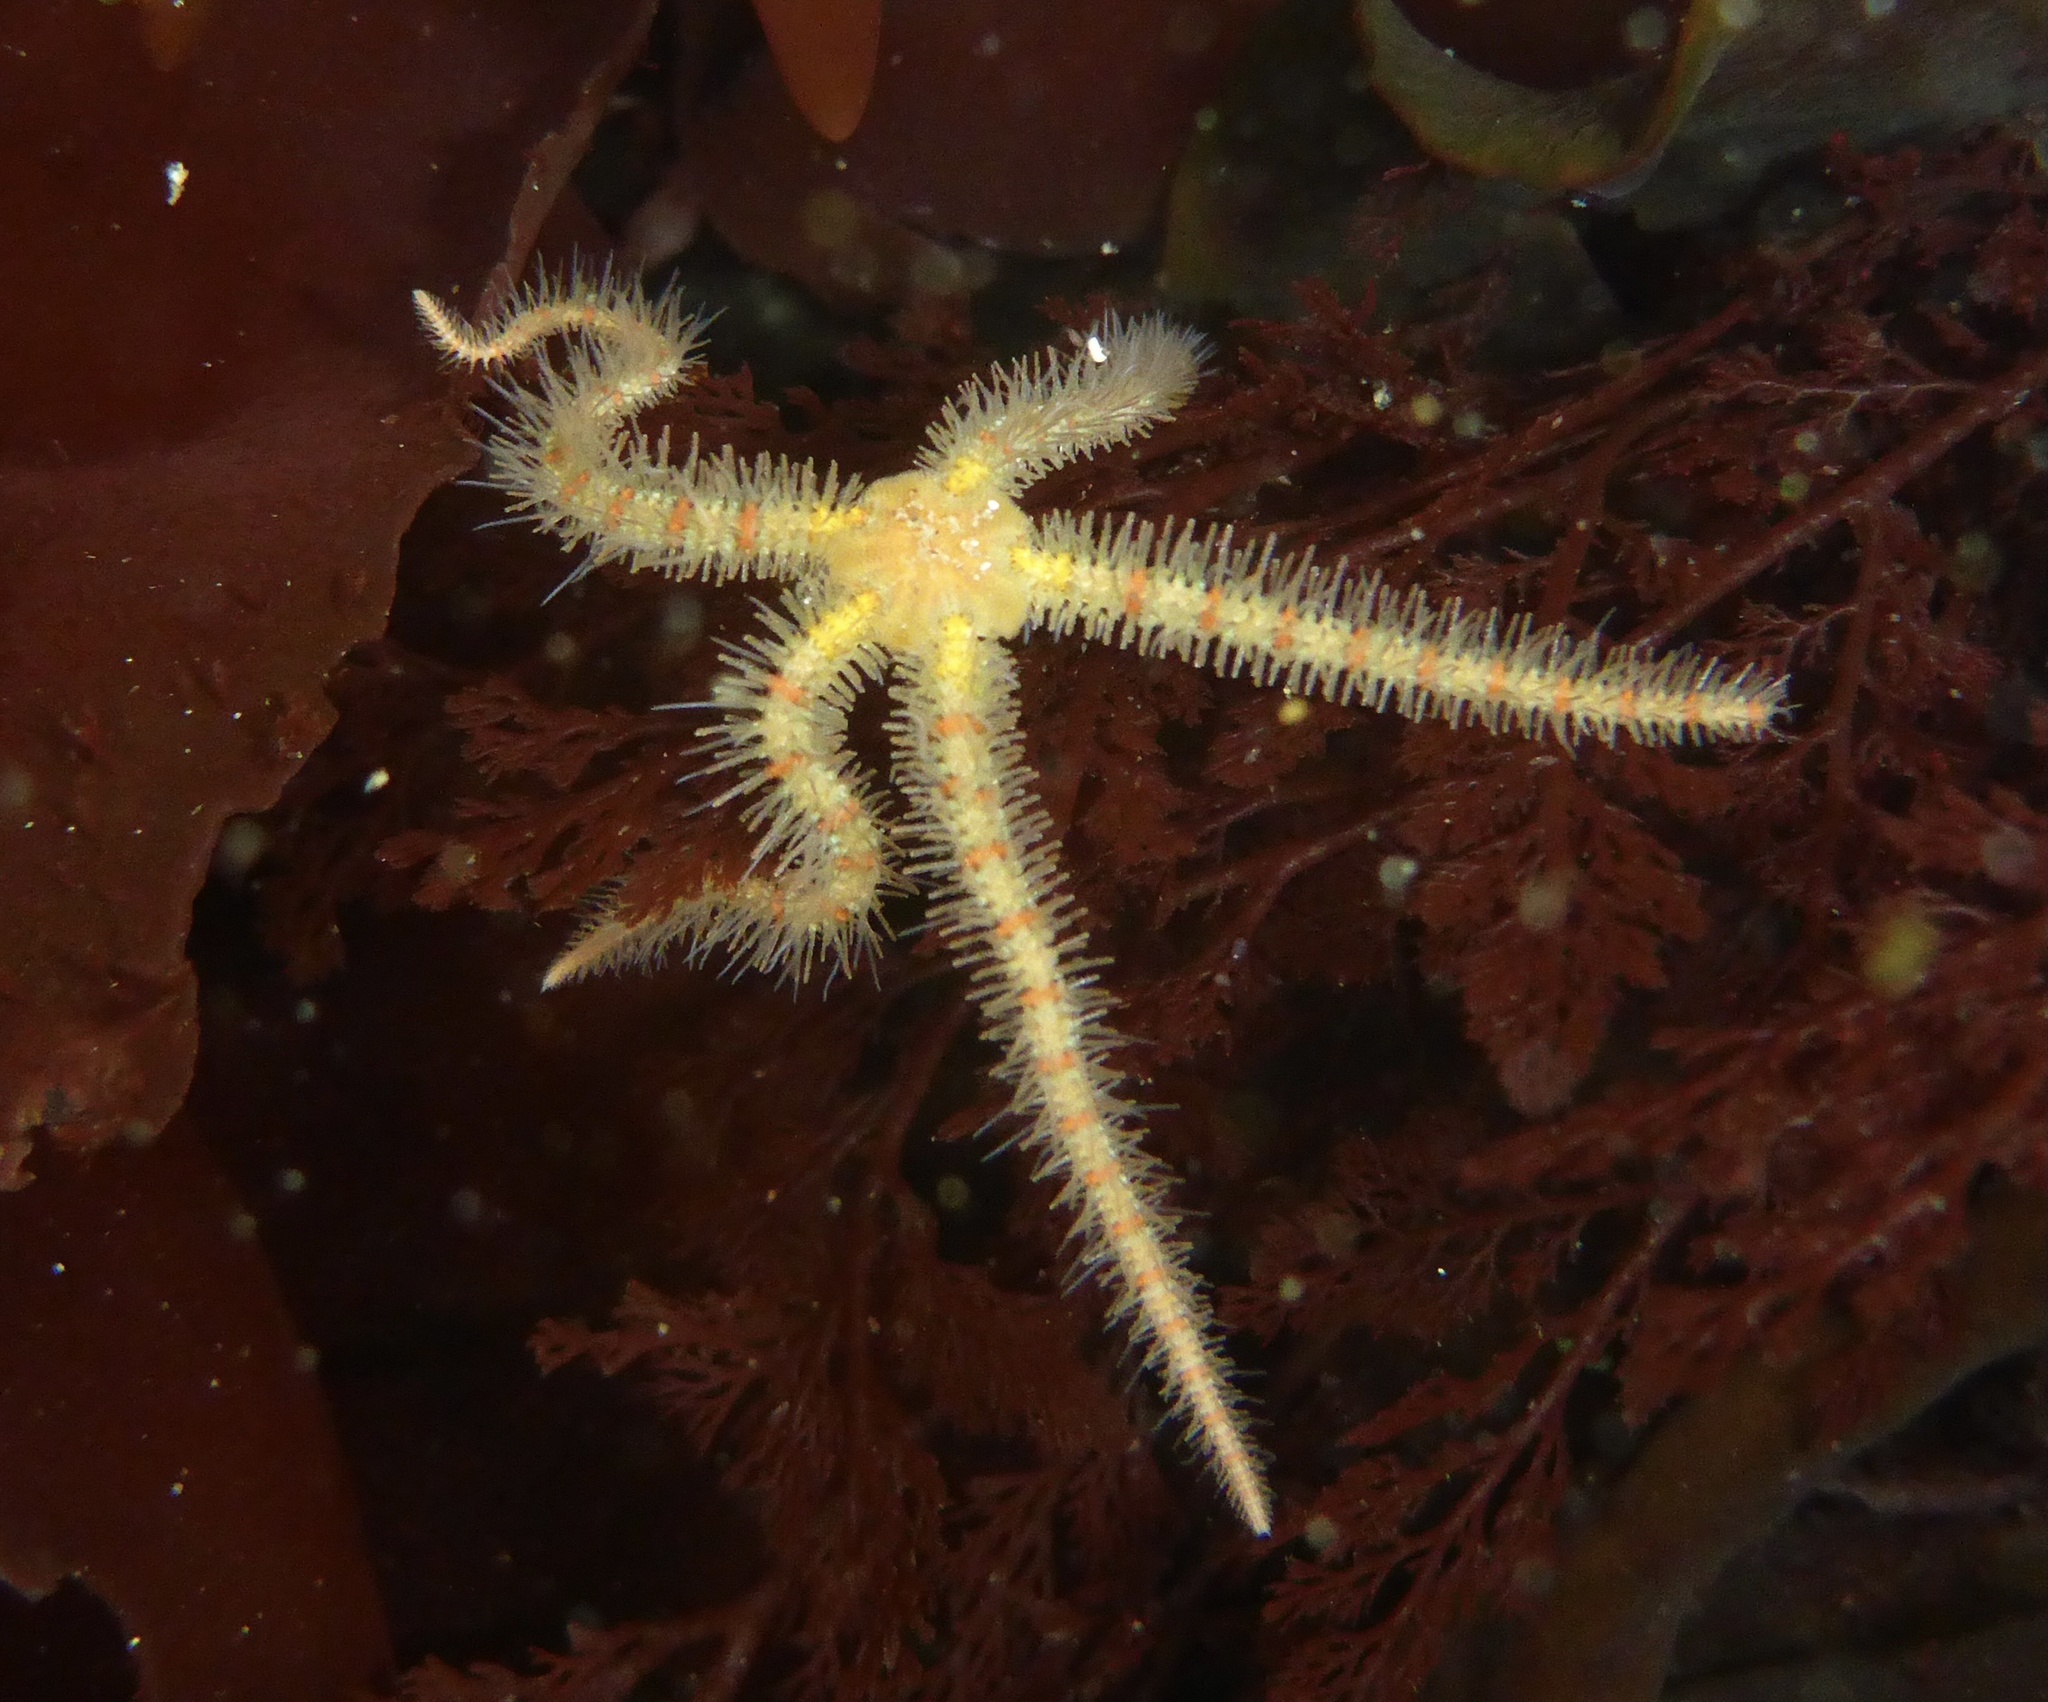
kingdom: Animalia
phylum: Echinodermata
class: Ophiuroidea
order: Amphilepidida
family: Ophiotrichidae
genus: Ophiothrix
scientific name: Ophiothrix spiculata
